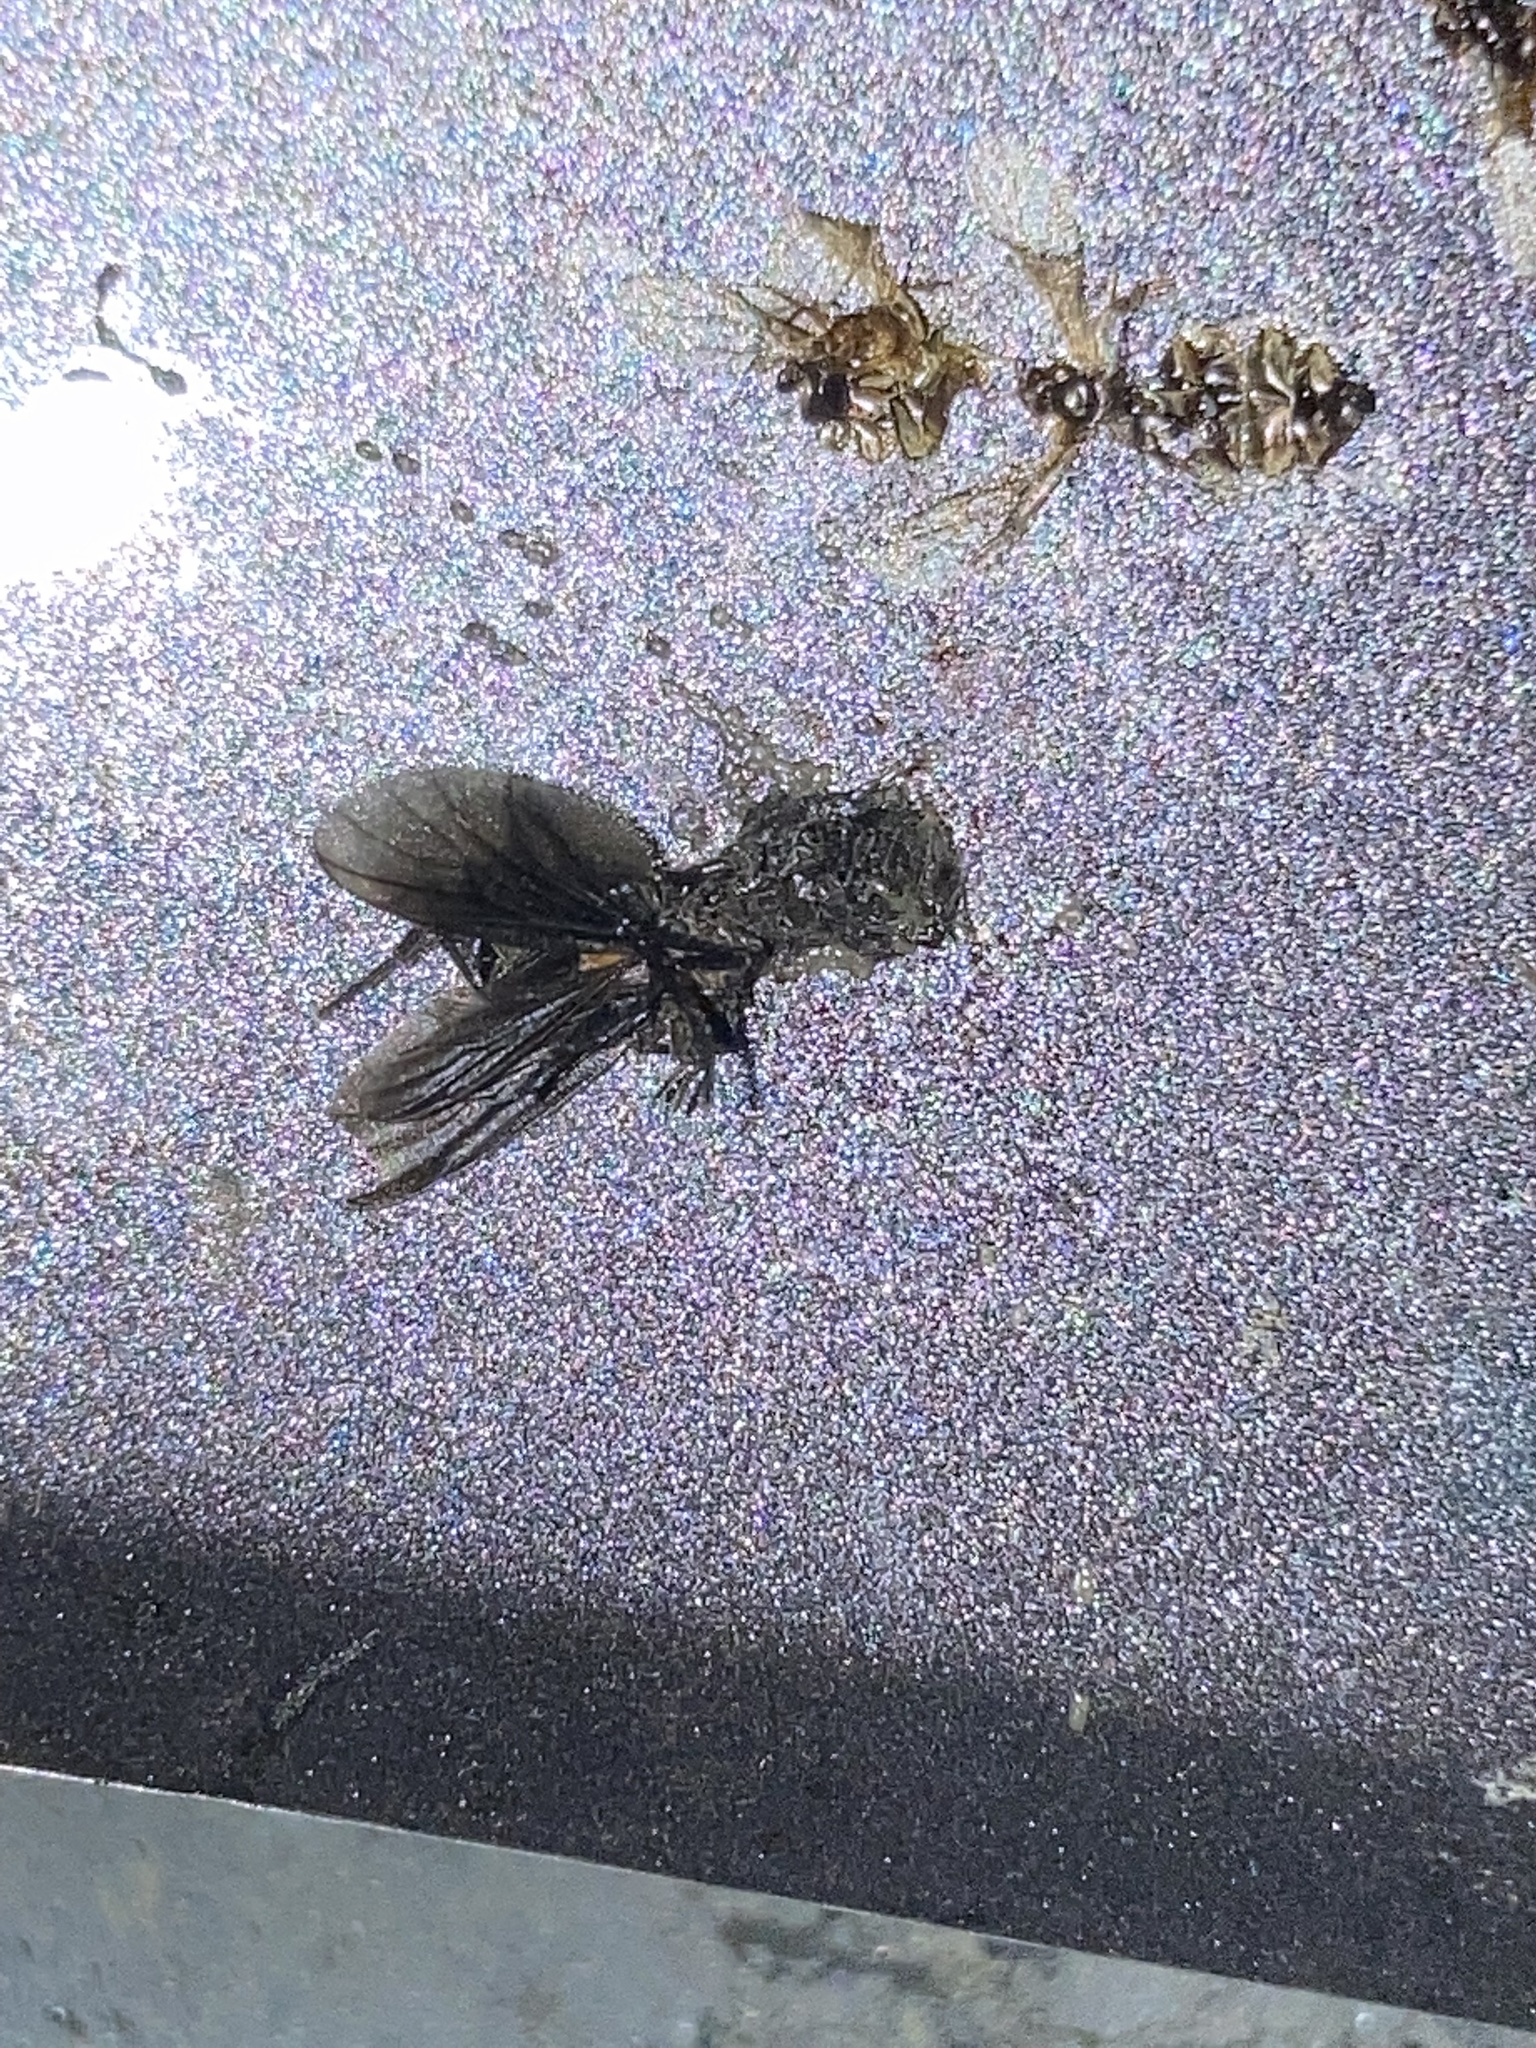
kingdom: Animalia
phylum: Arthropoda
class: Insecta
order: Diptera
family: Bibionidae
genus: Plecia
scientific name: Plecia nearctica
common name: March fly
